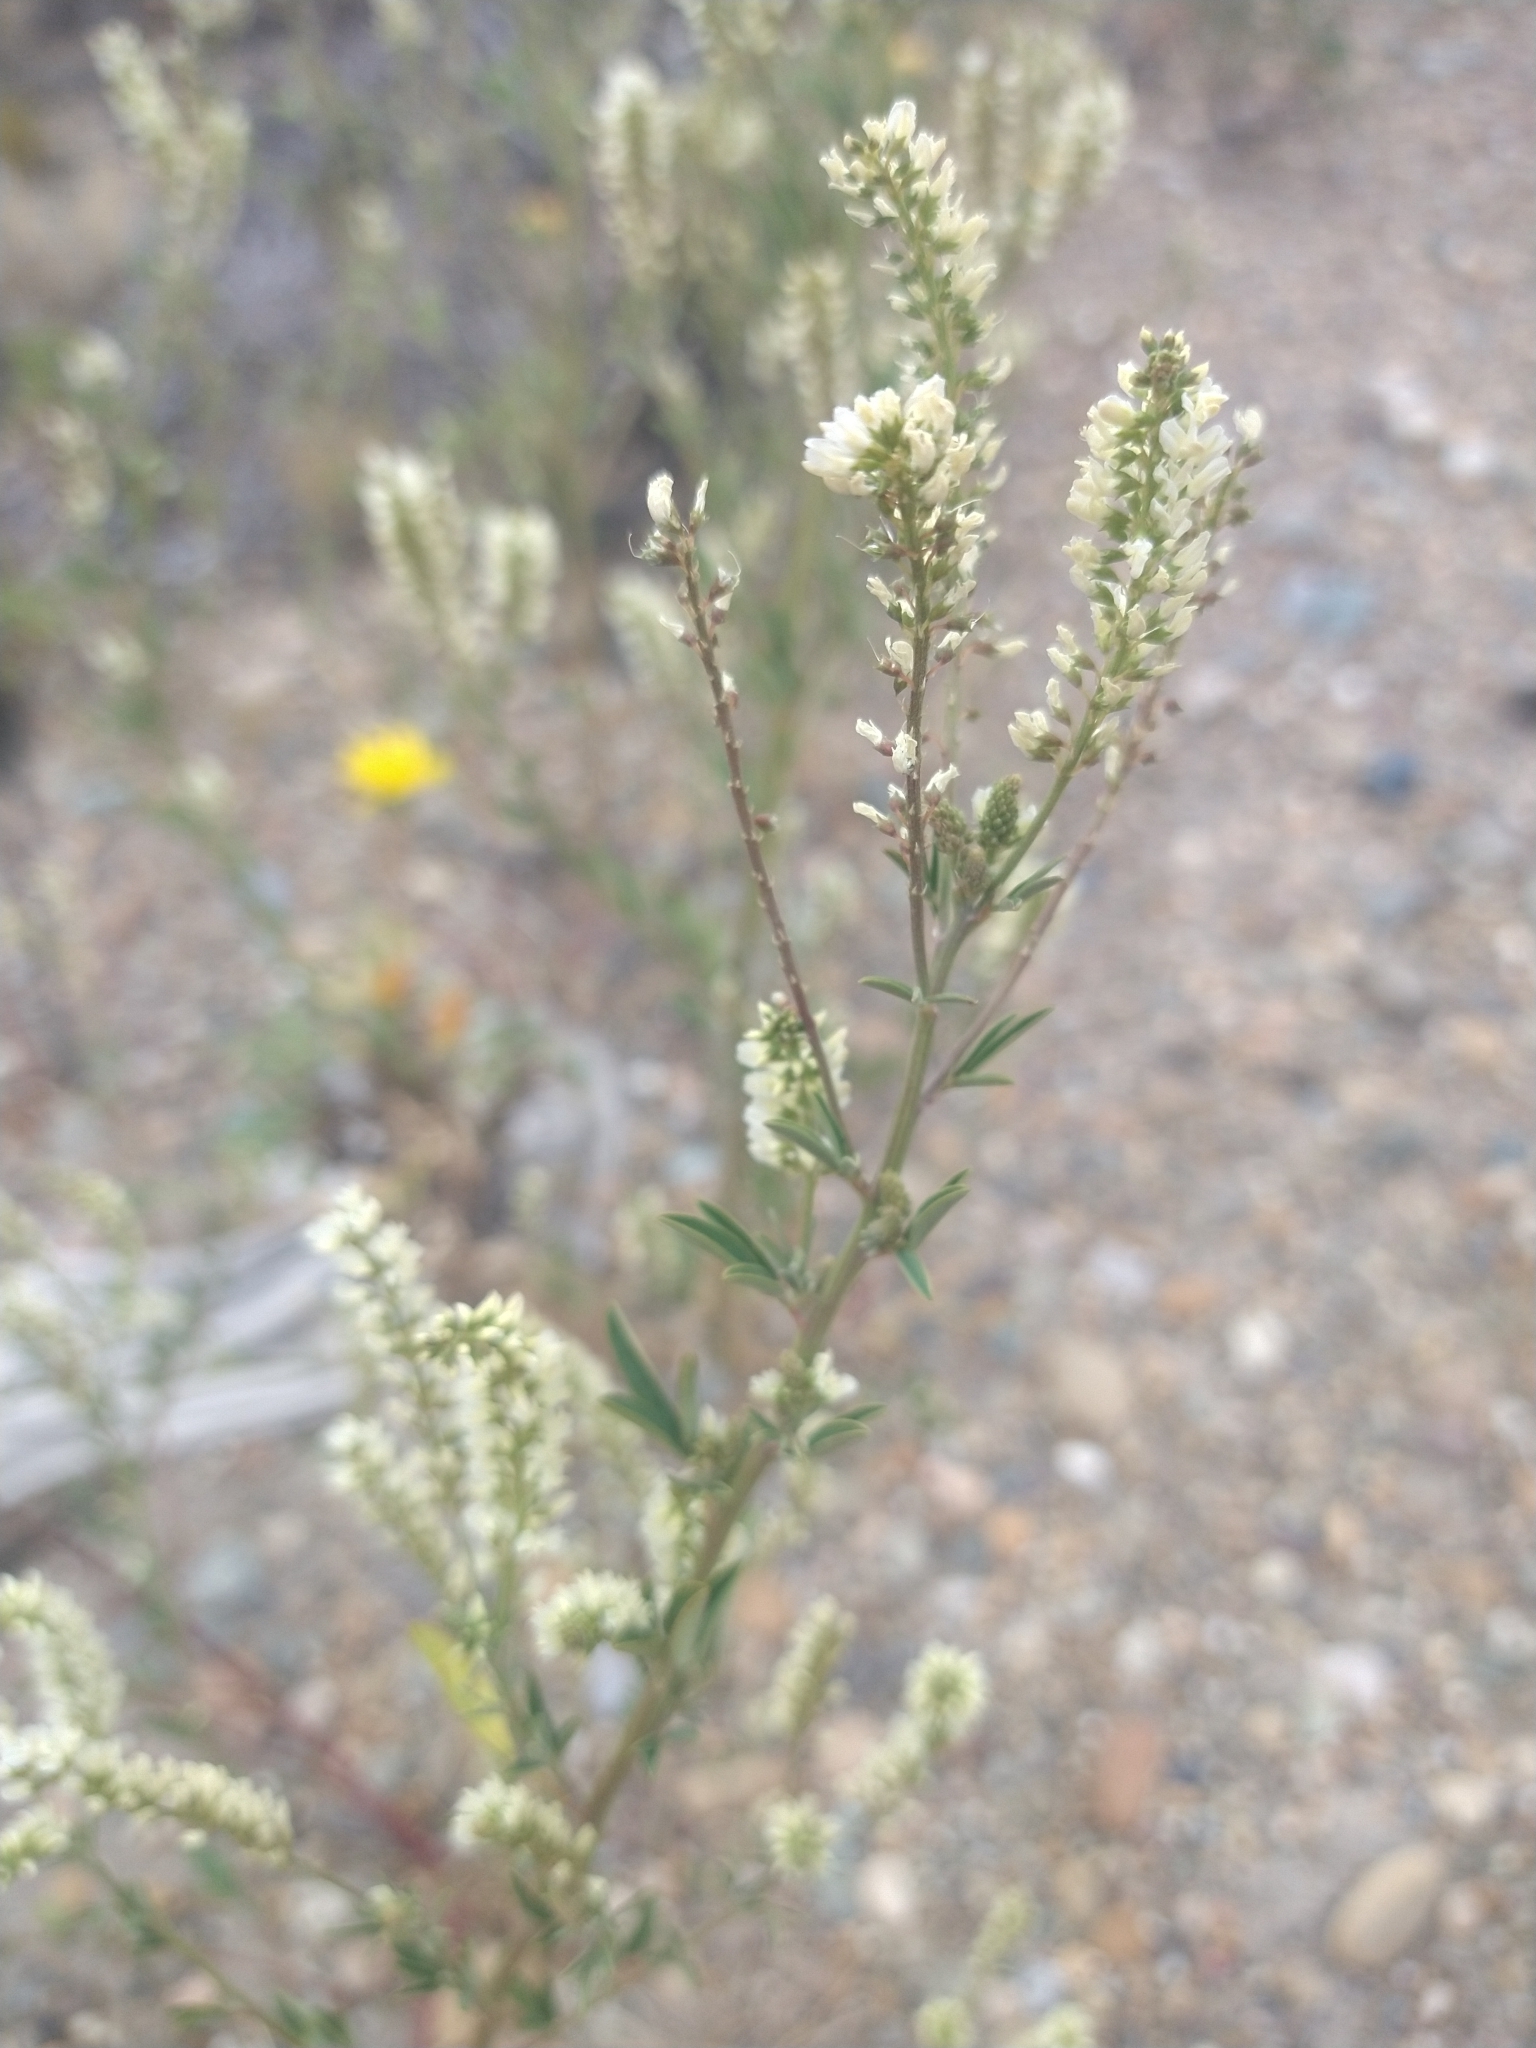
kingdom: Plantae
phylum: Tracheophyta
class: Magnoliopsida
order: Fabales
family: Fabaceae
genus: Melilotus
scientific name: Melilotus albus
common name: White melilot
